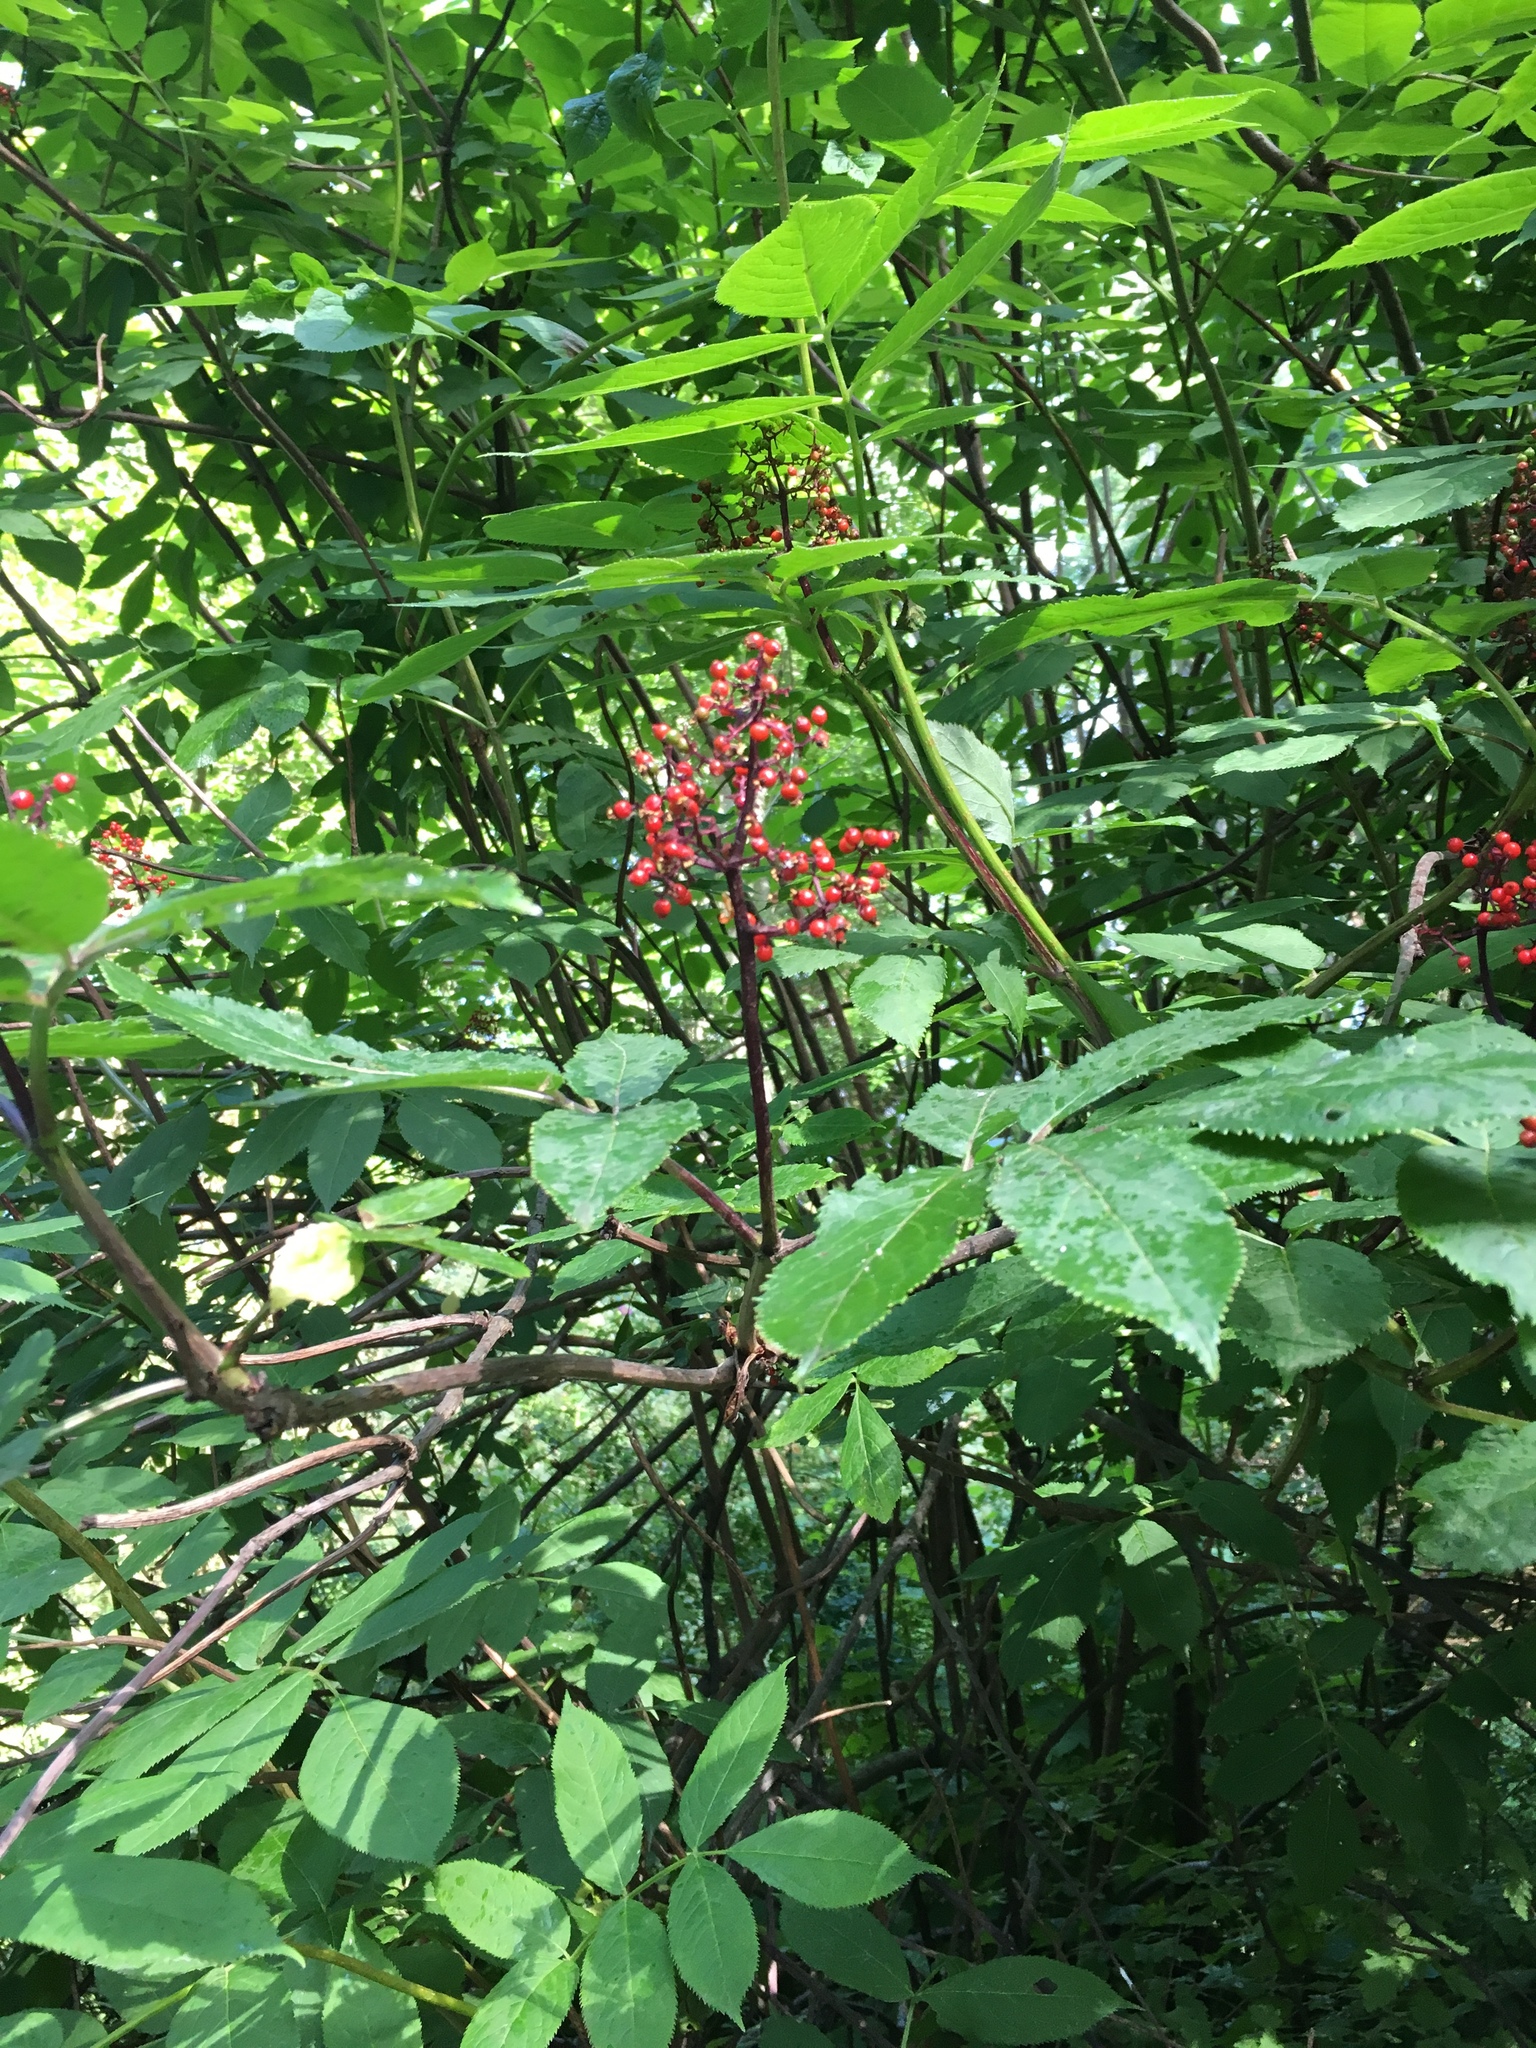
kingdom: Plantae
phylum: Tracheophyta
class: Magnoliopsida
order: Dipsacales
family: Viburnaceae
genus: Sambucus
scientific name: Sambucus racemosa
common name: Red-berried elder
